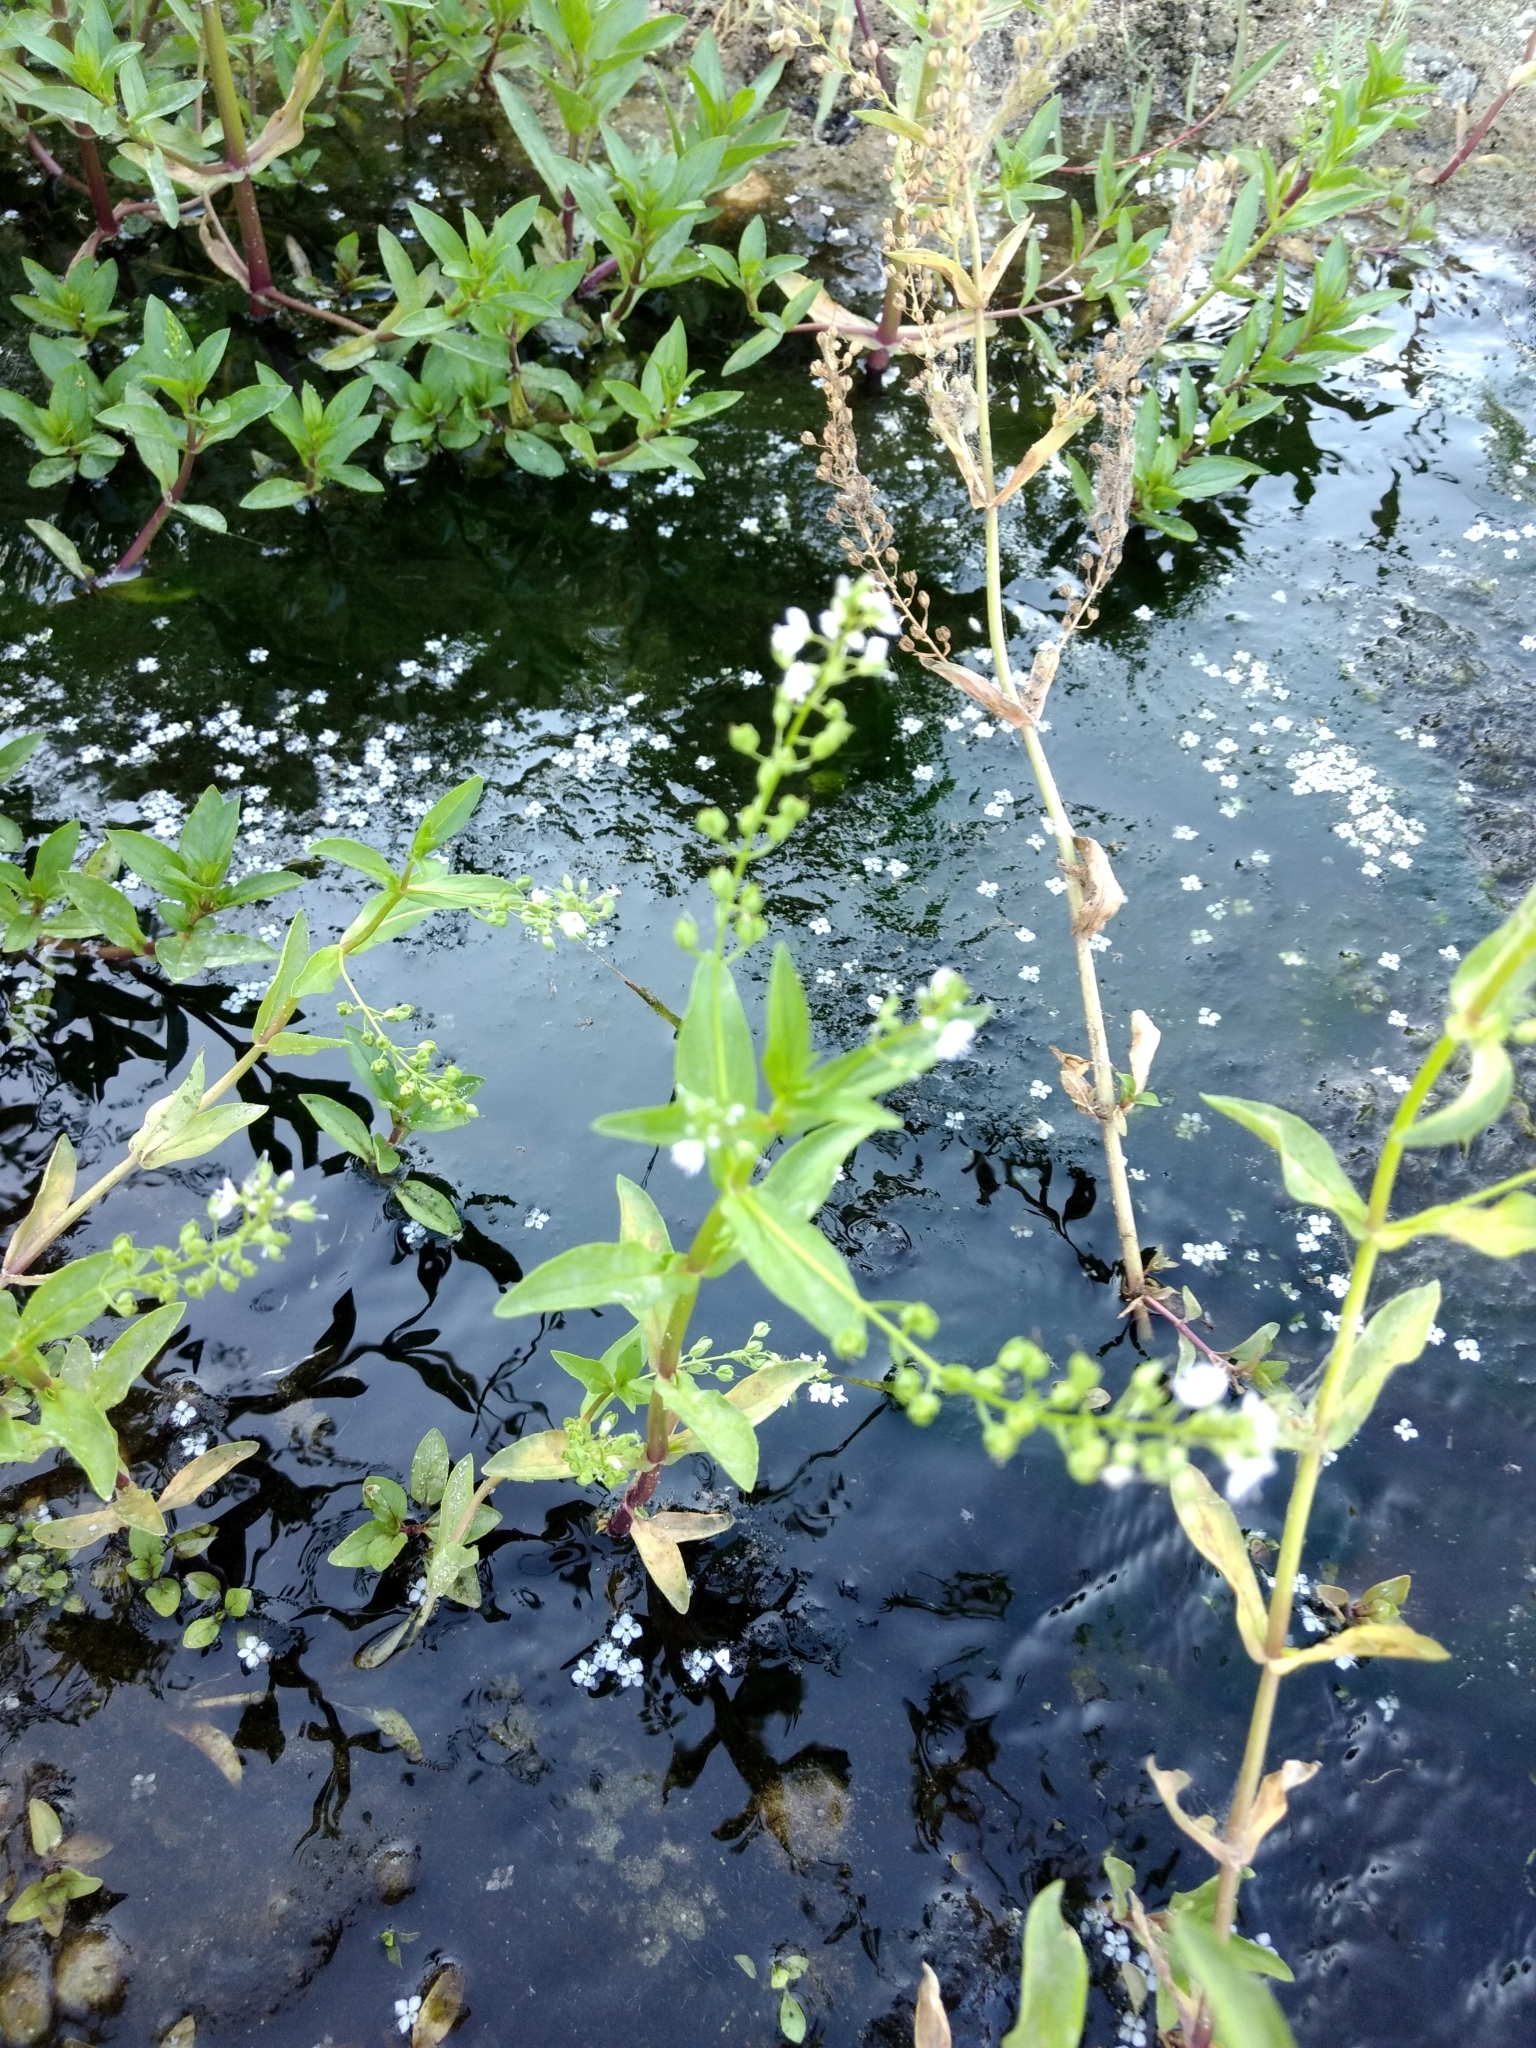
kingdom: Plantae
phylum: Tracheophyta
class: Magnoliopsida
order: Lamiales
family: Plantaginaceae
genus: Veronica
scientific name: Veronica anagallis-aquatica
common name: Water speedwell
